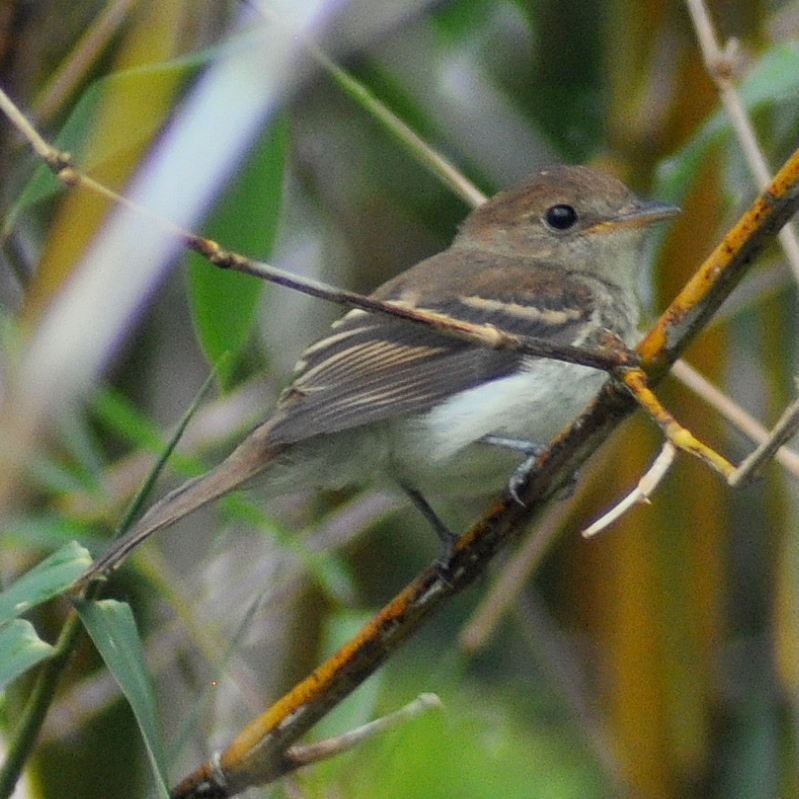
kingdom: Animalia
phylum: Chordata
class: Aves
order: Passeriformes
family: Tyrannidae
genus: Lathrotriccus
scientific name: Lathrotriccus euleri
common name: Euler's flycatcher
